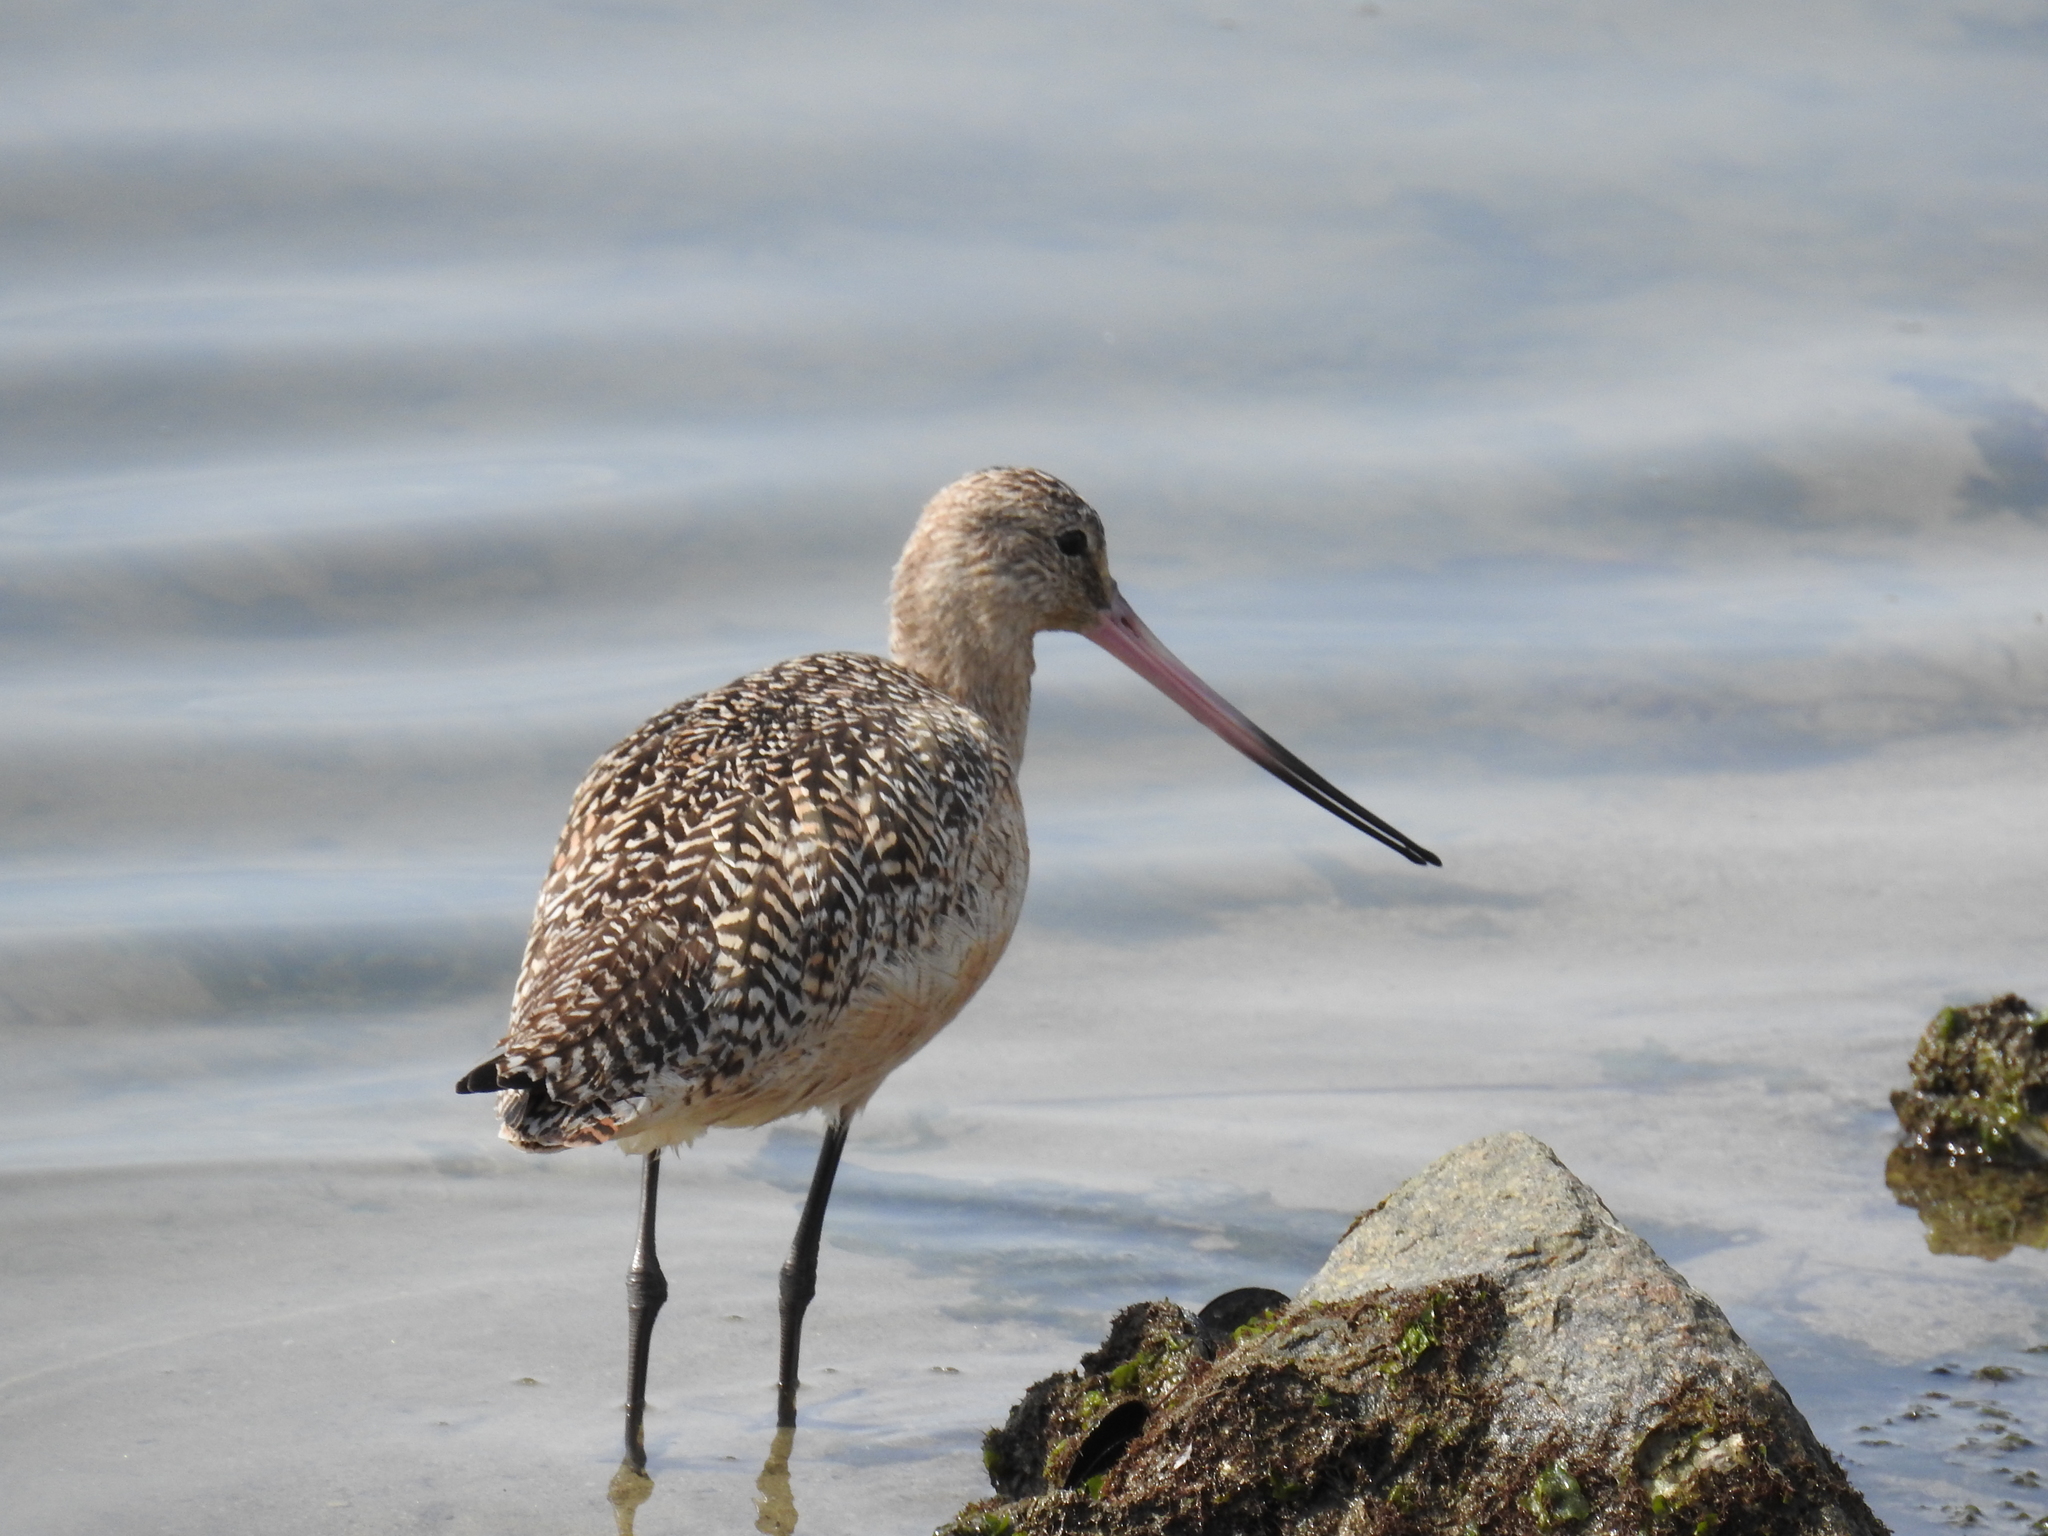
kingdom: Animalia
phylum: Chordata
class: Aves
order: Charadriiformes
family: Scolopacidae
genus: Limosa
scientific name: Limosa fedoa
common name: Marbled godwit
